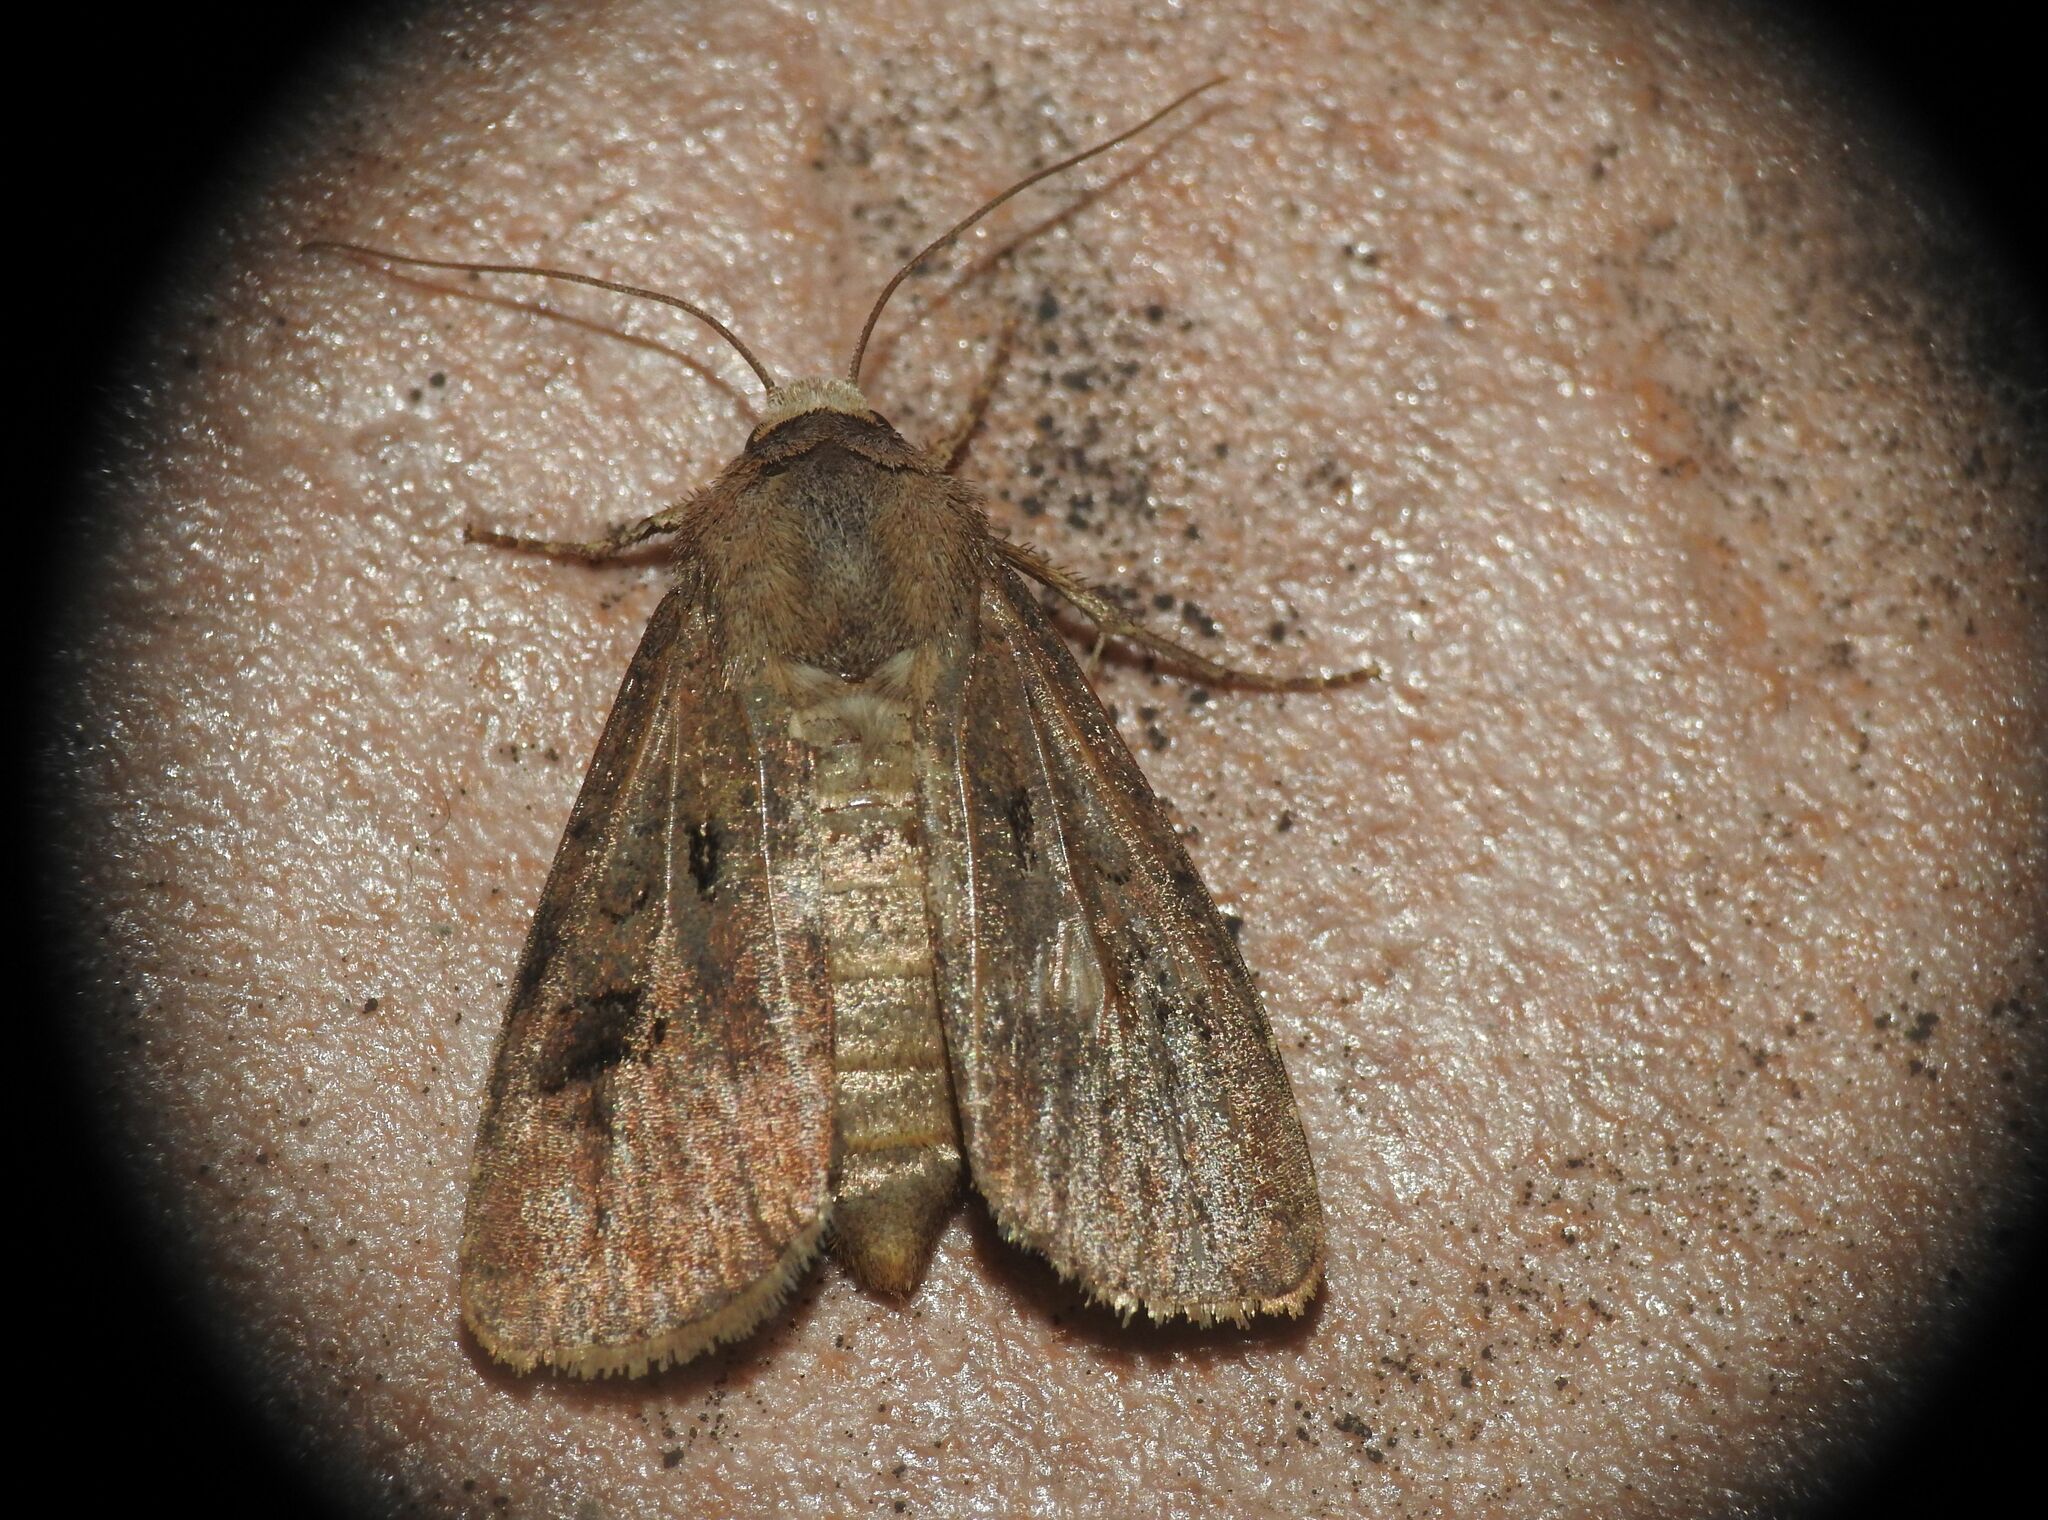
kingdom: Animalia
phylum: Arthropoda
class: Insecta
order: Lepidoptera
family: Noctuidae
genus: Agrotis
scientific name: Agrotis exclamationis
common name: Heart and dart
